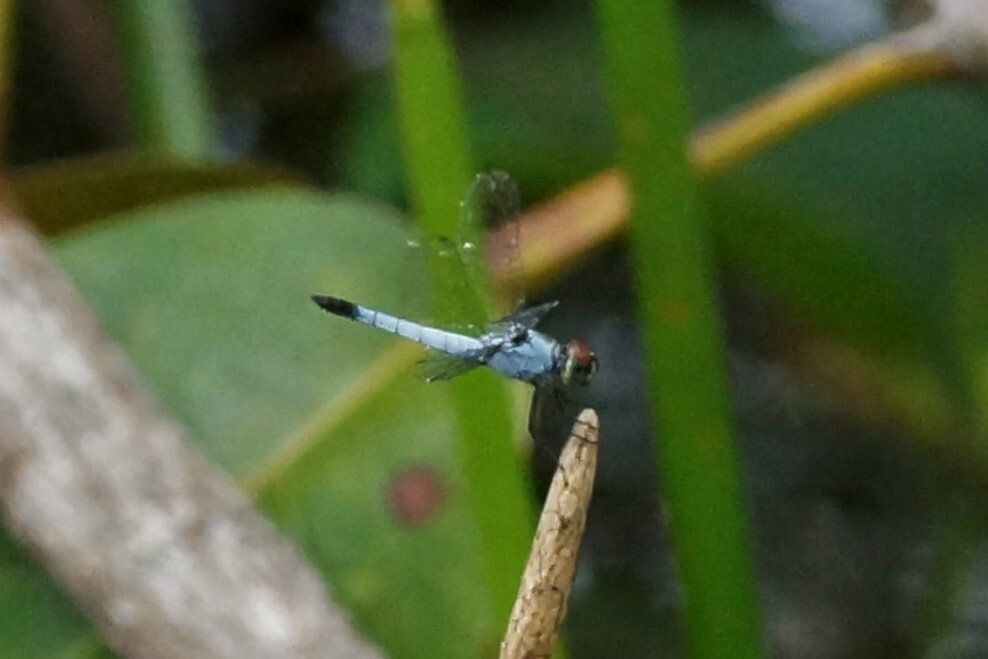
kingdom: Animalia
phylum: Arthropoda
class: Insecta
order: Odonata
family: Libellulidae
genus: Brachydiplax
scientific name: Brachydiplax denticauda
